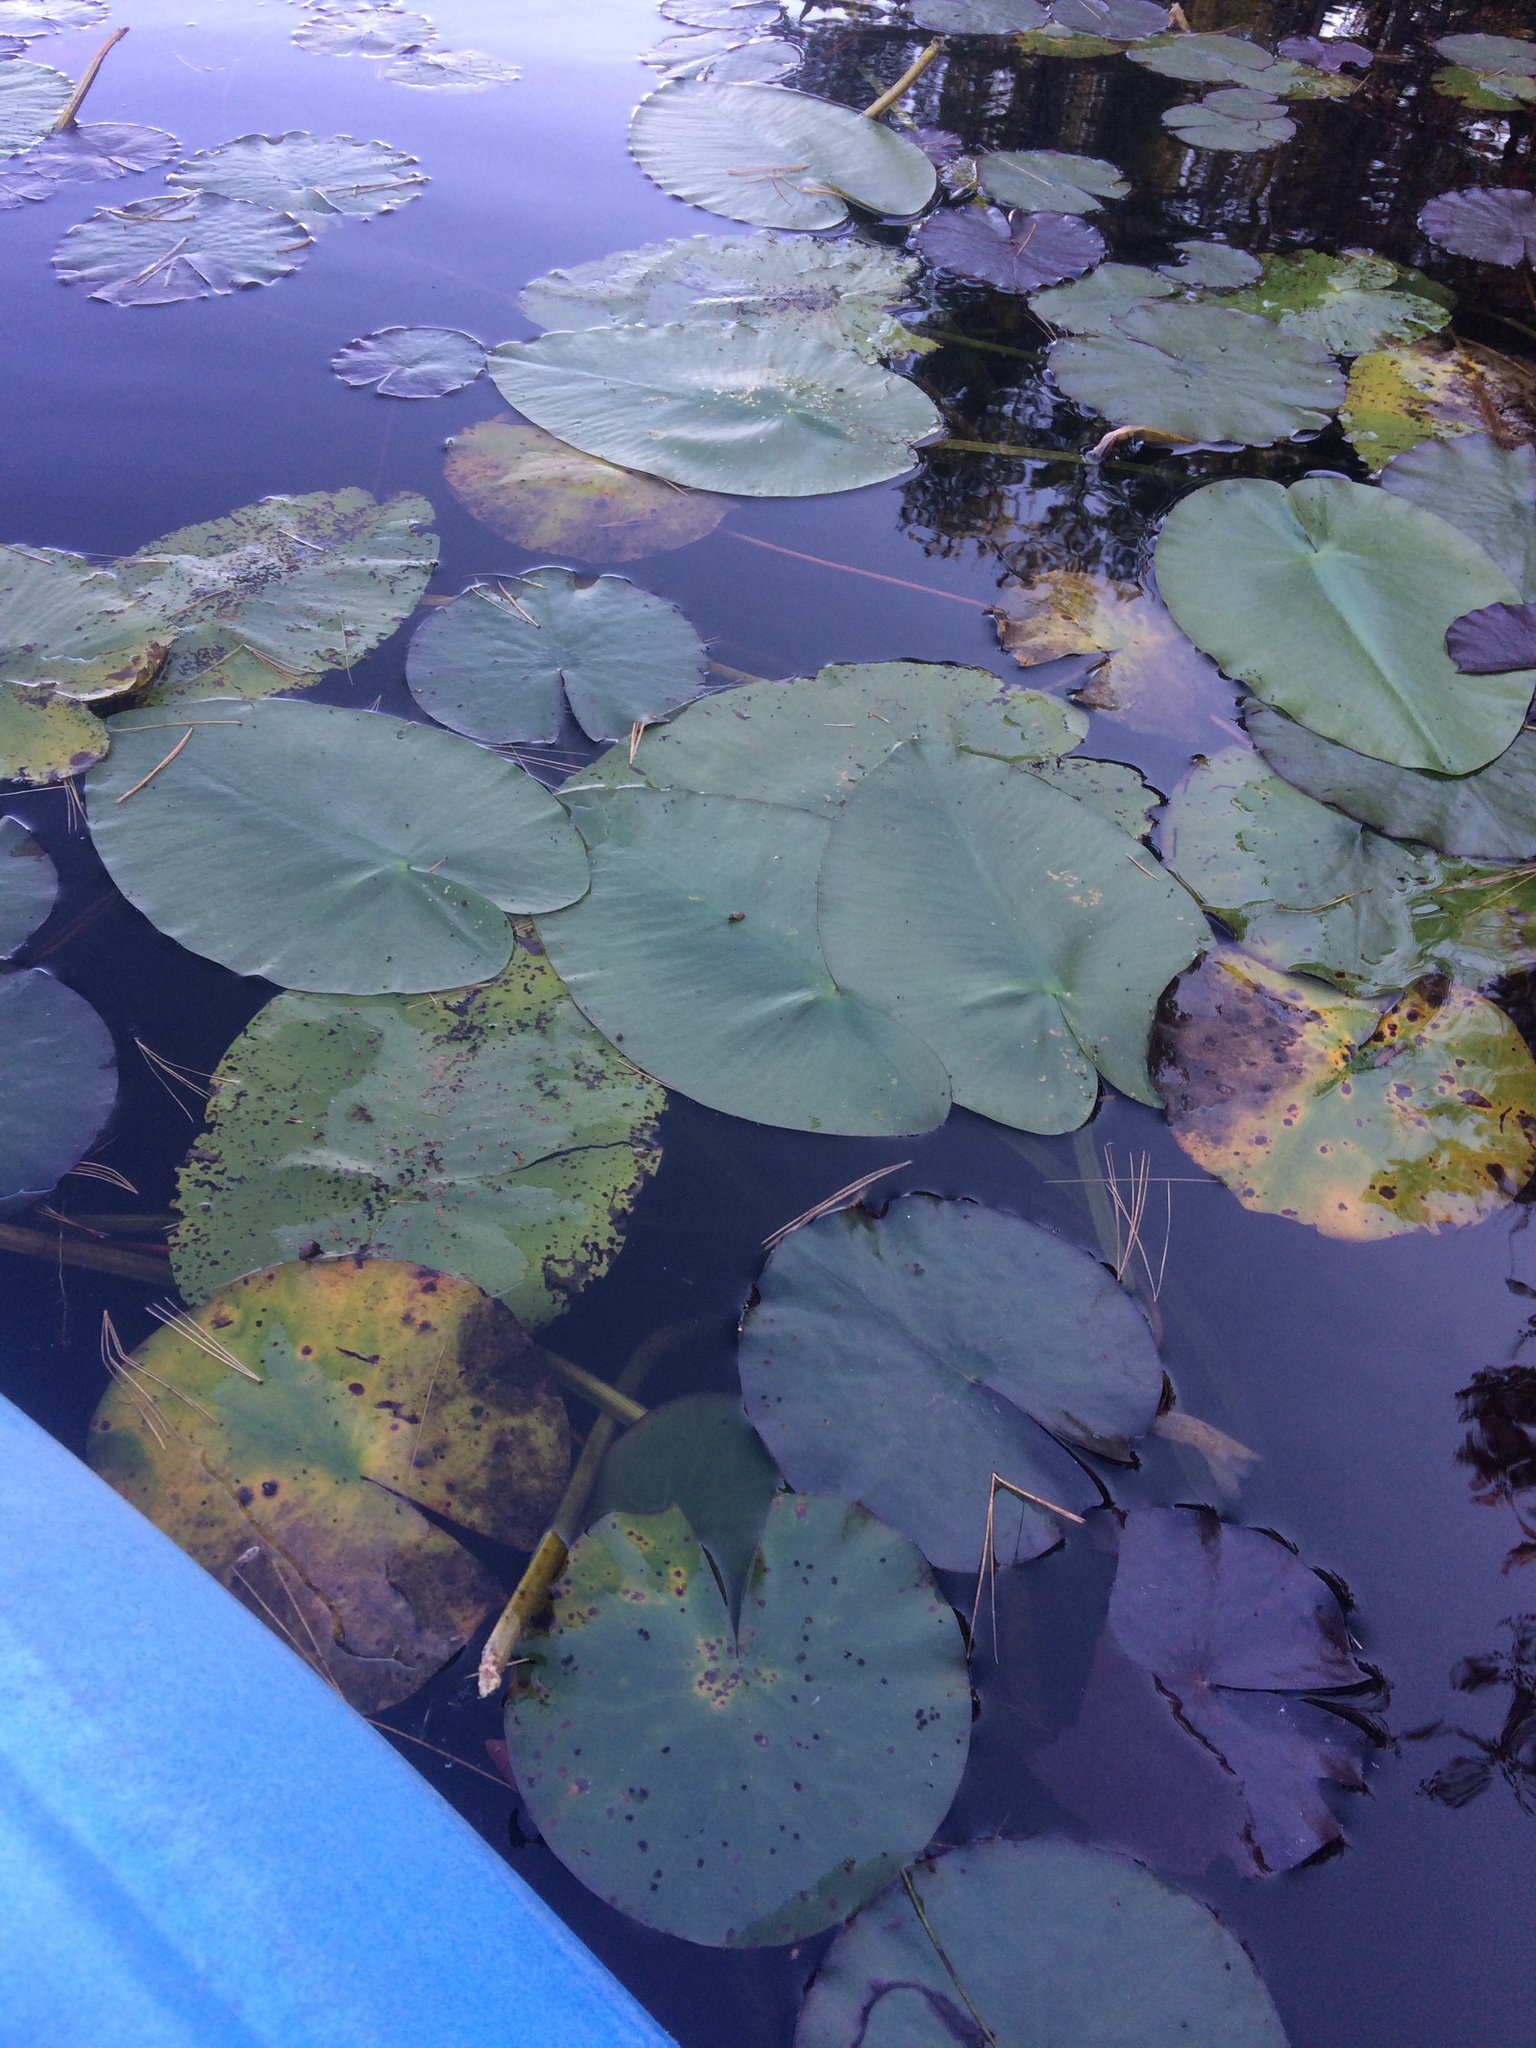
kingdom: Plantae
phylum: Tracheophyta
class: Magnoliopsida
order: Nymphaeales
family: Nymphaeaceae
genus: Nuphar
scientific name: Nuphar variegata
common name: Beaver-root
